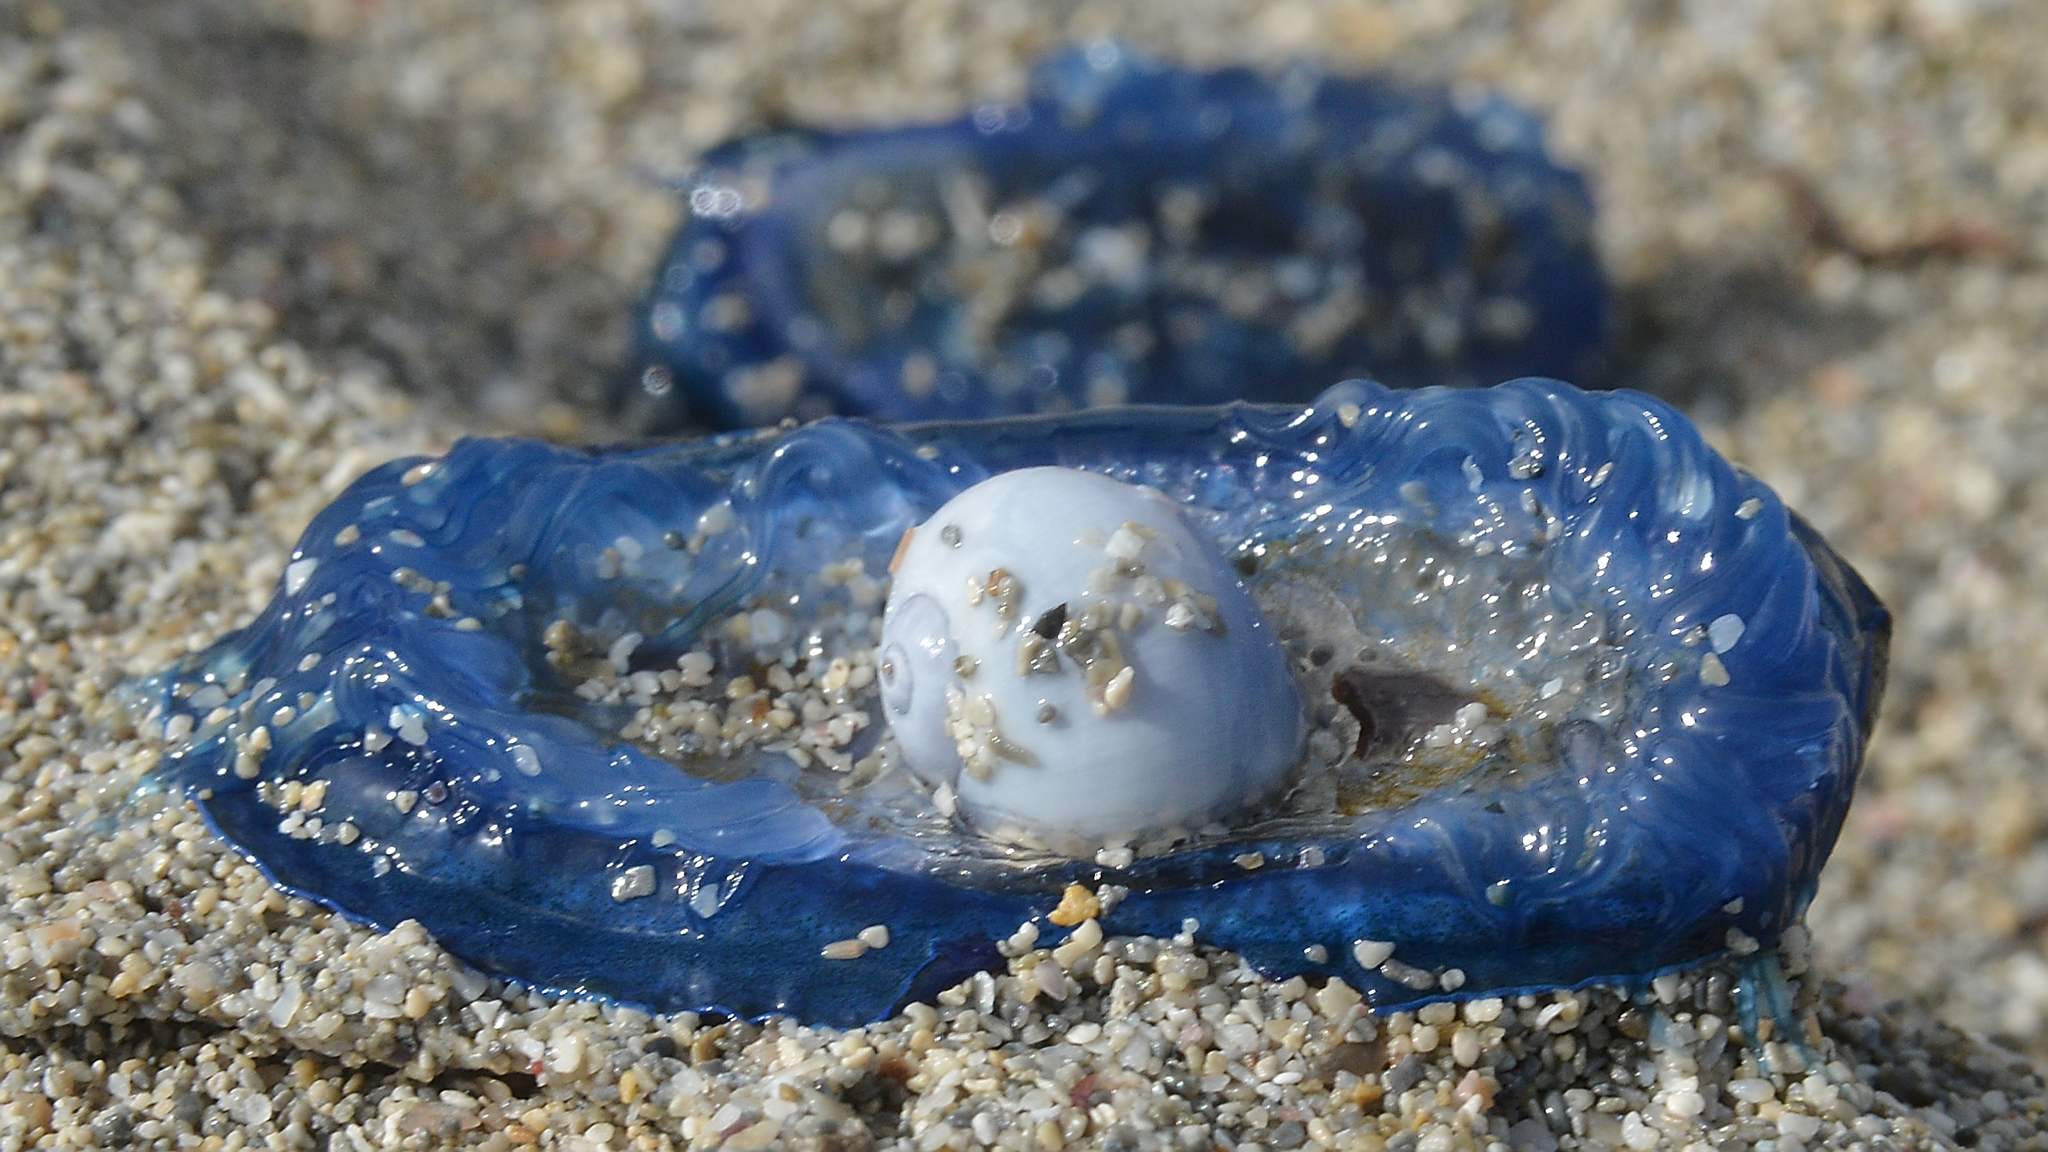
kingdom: Animalia
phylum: Cnidaria
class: Hydrozoa
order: Anthoathecata
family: Porpitidae
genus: Velella
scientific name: Velella velella
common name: By-the-wind-sailor
